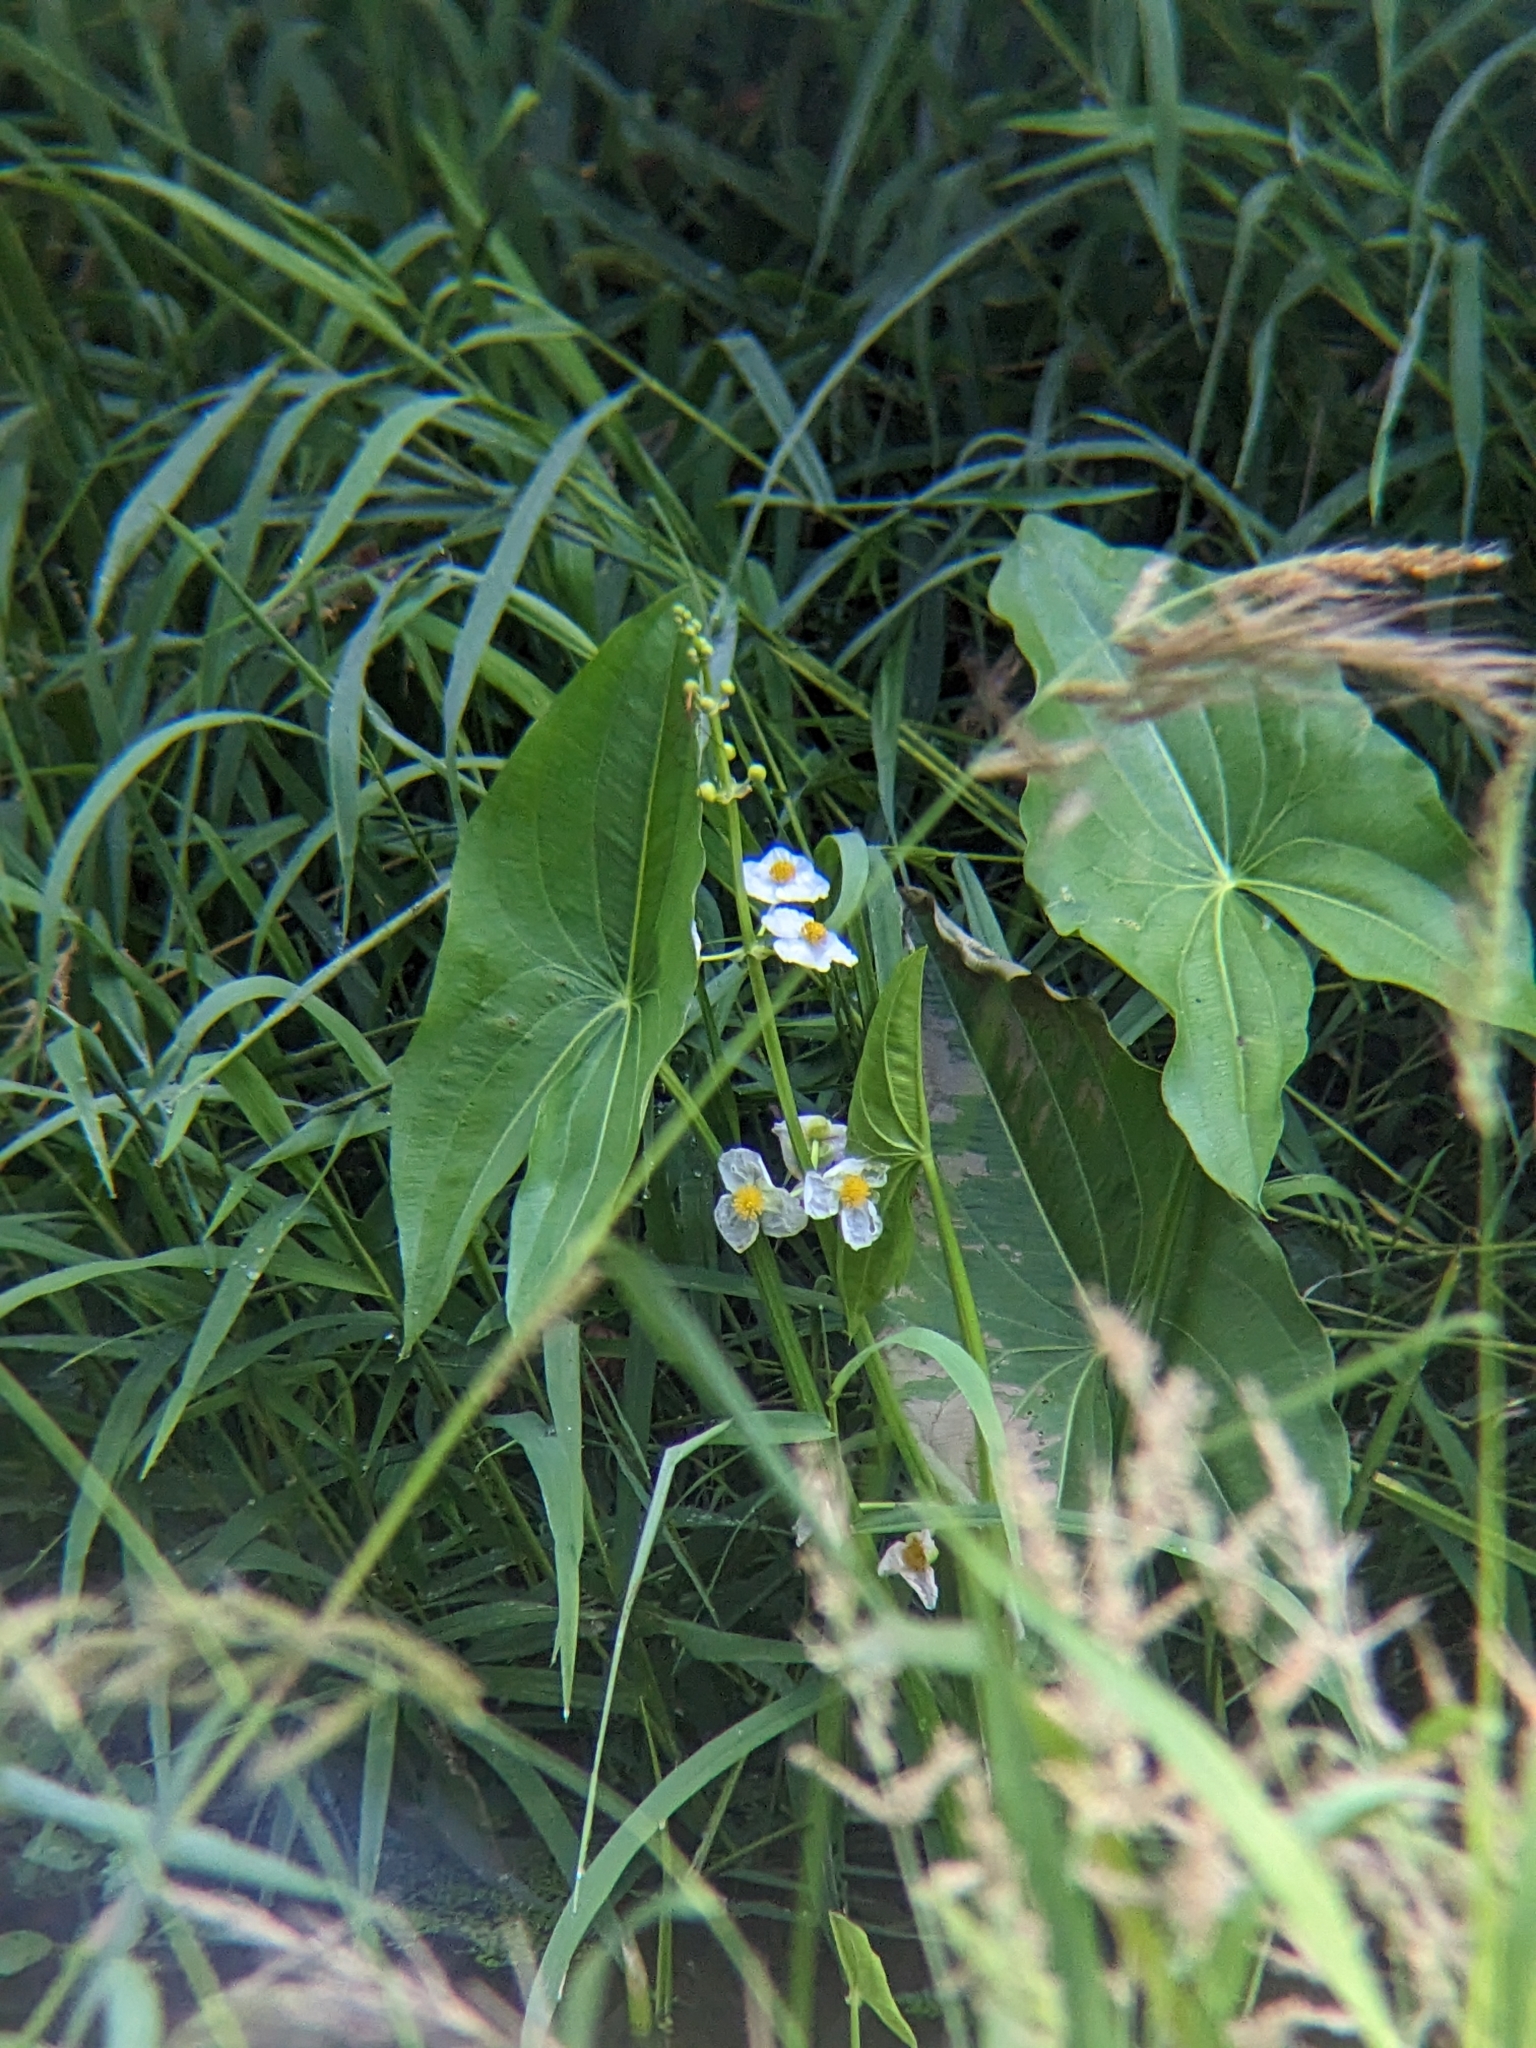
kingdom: Plantae
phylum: Tracheophyta
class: Liliopsida
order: Alismatales
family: Alismataceae
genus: Sagittaria
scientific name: Sagittaria latifolia
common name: Duck-potato
